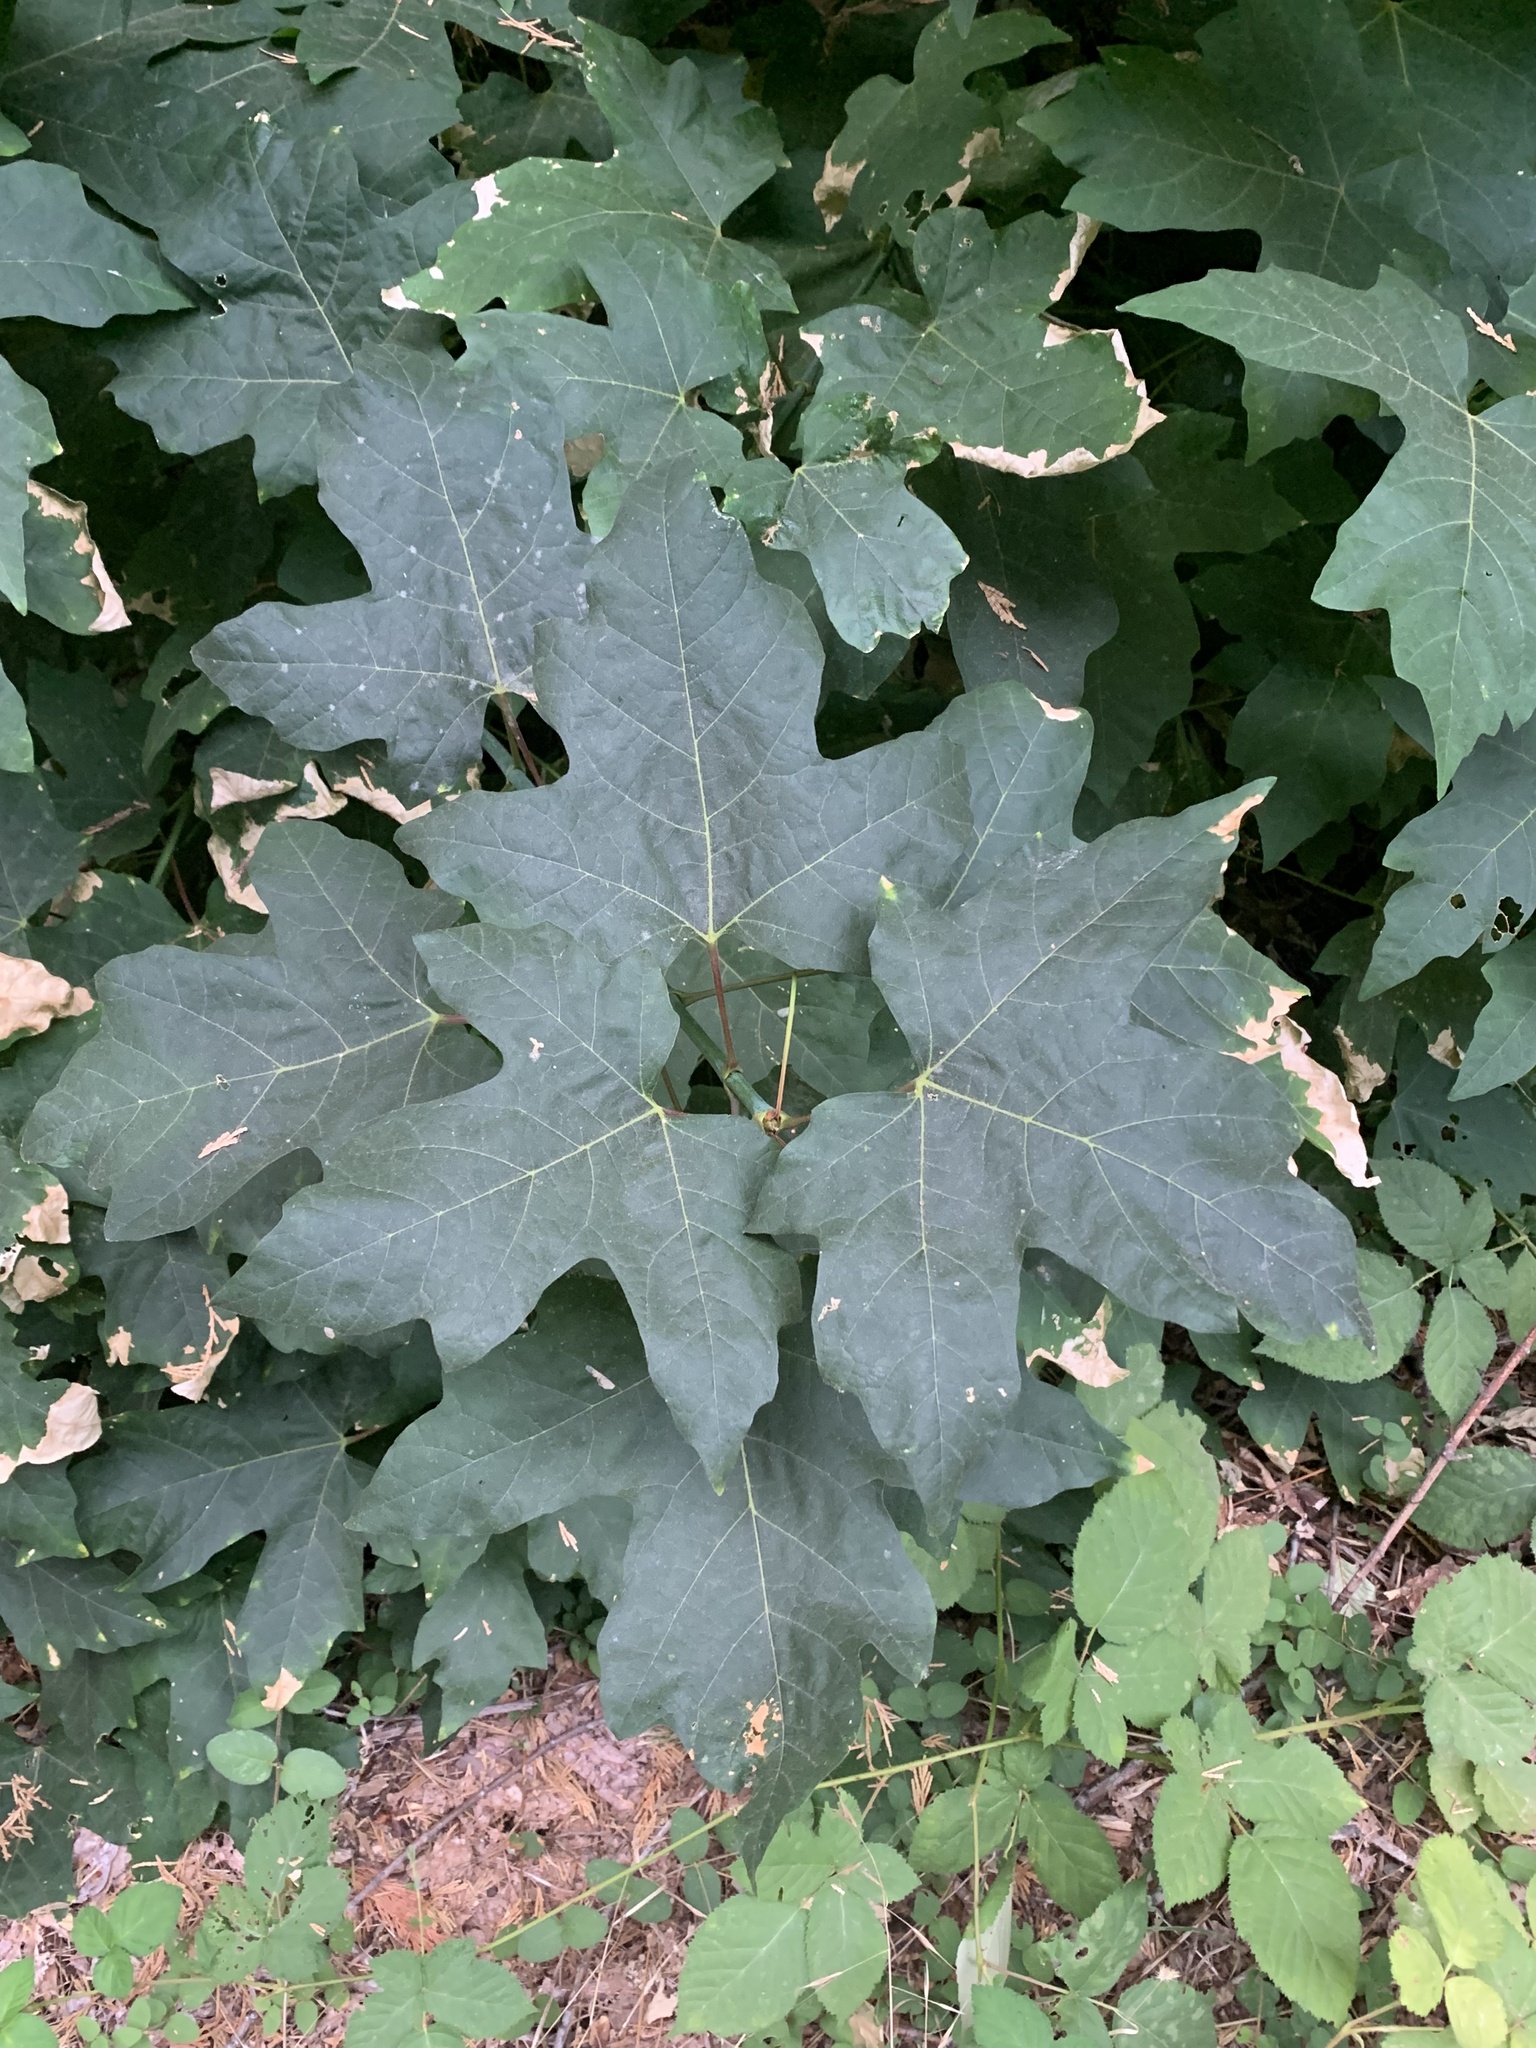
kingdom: Plantae
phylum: Tracheophyta
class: Magnoliopsida
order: Sapindales
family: Sapindaceae
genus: Acer
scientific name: Acer macrophyllum
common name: Oregon maple
